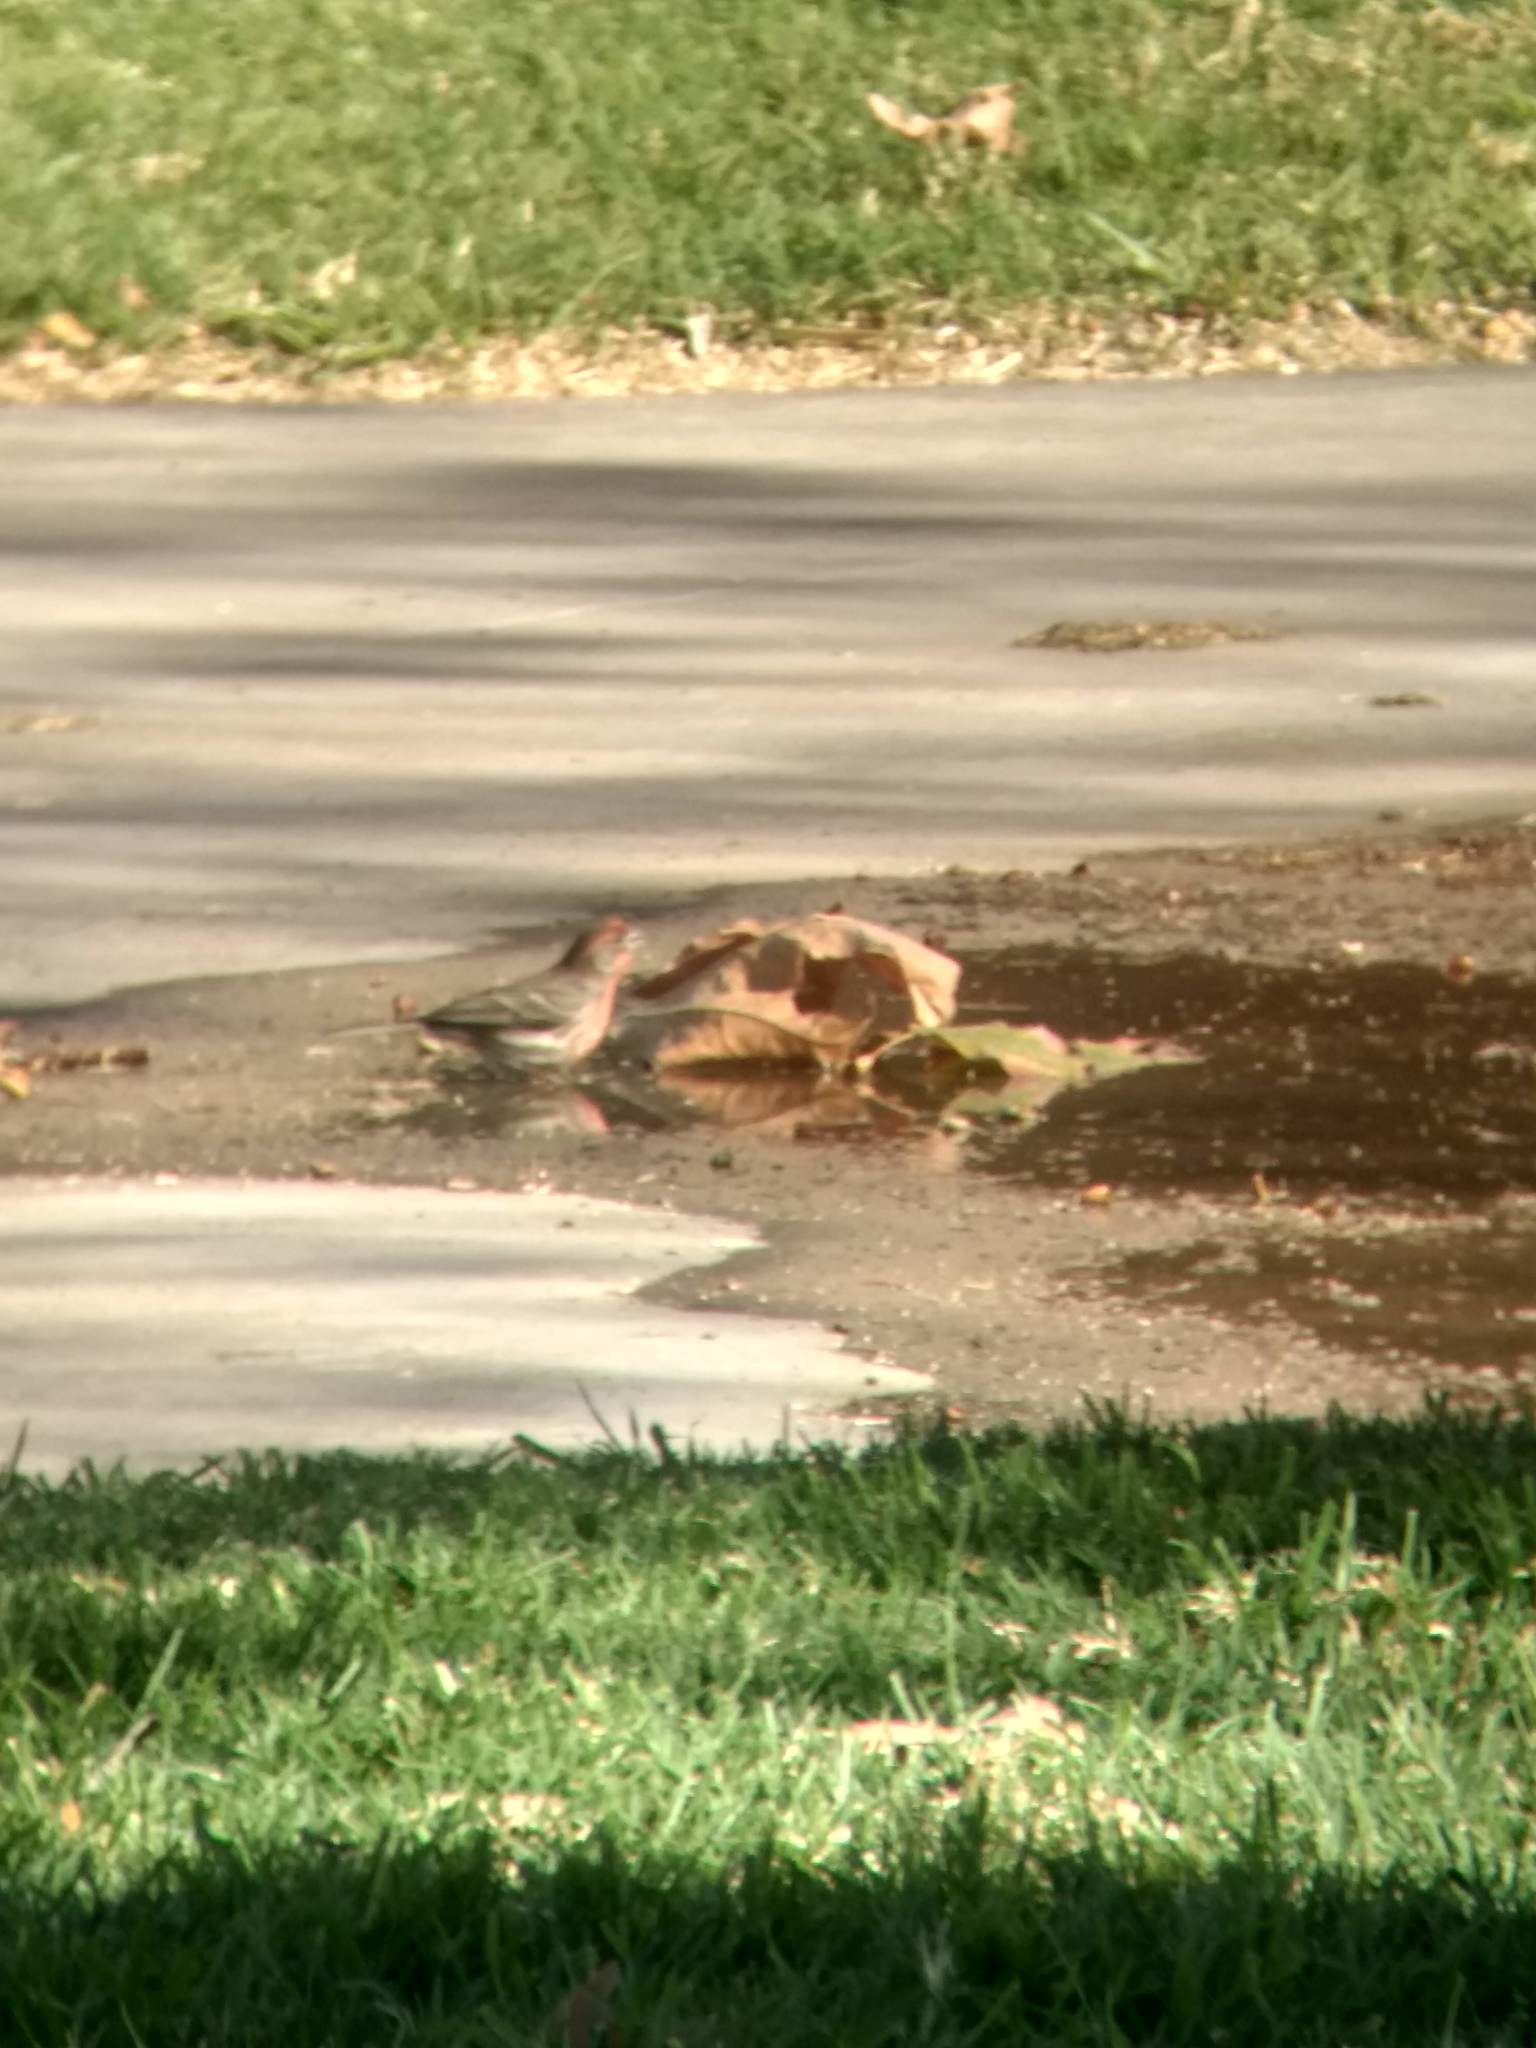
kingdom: Animalia
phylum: Chordata
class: Aves
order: Passeriformes
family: Fringillidae
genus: Haemorhous
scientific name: Haemorhous mexicanus
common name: House finch
